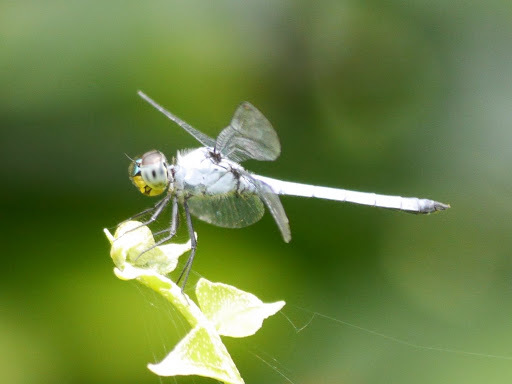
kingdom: Animalia
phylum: Arthropoda
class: Insecta
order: Odonata
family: Libellulidae
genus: Chalcostephia
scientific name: Chalcostephia flavifrons
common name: Inspector
